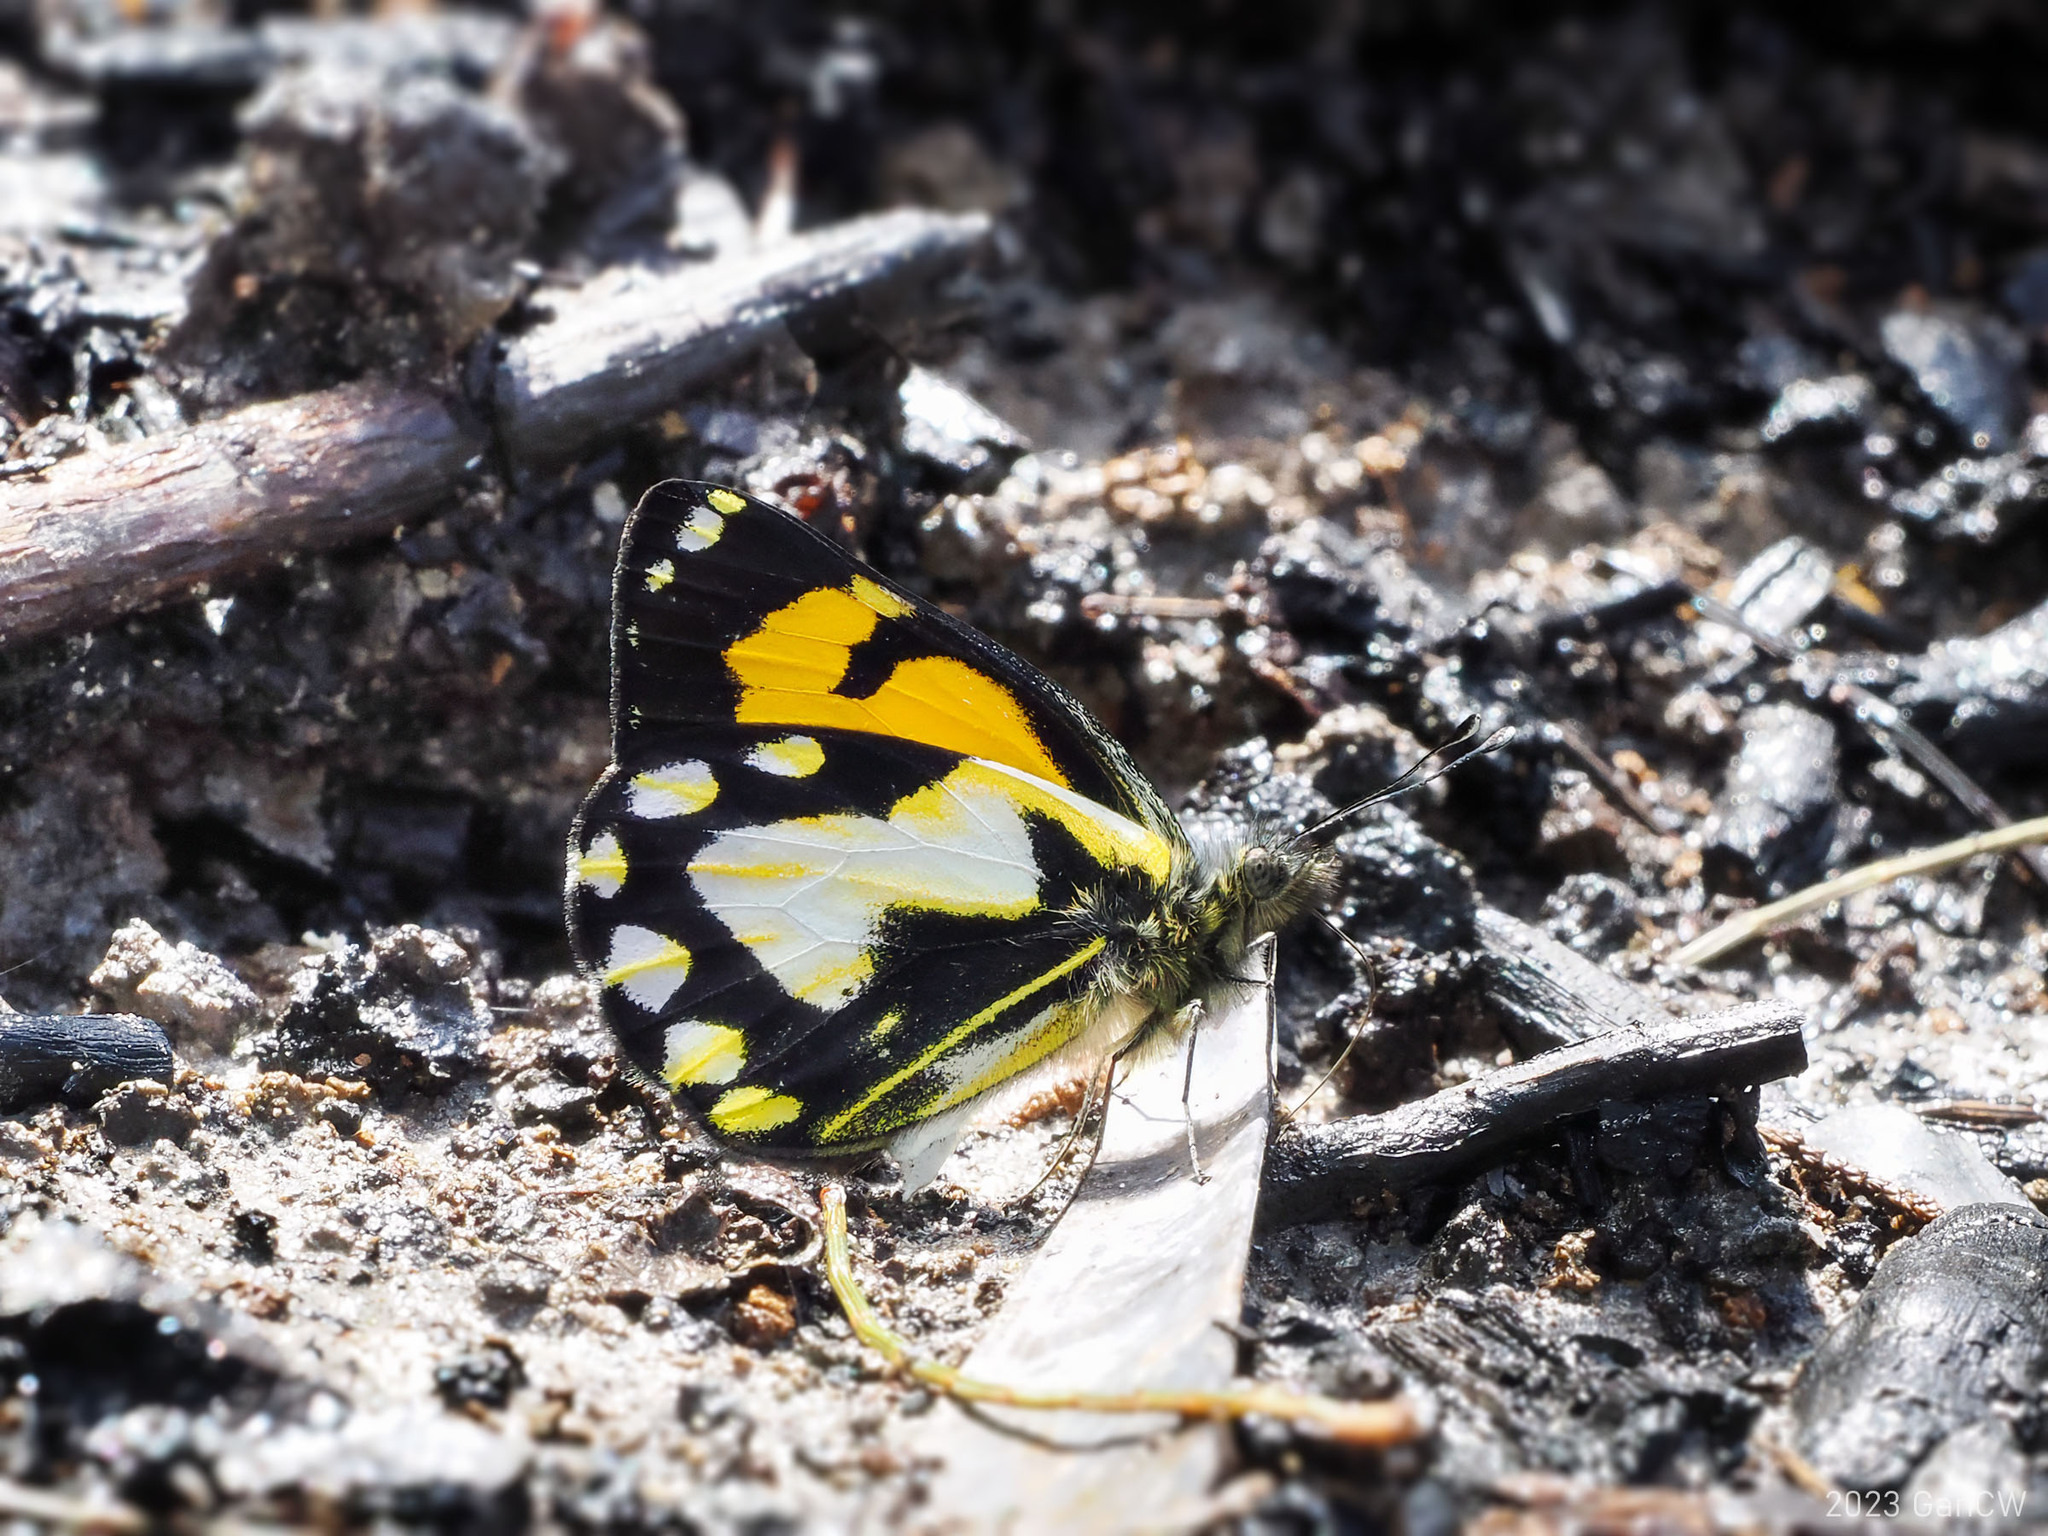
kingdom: Animalia
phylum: Arthropoda
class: Insecta
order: Lepidoptera
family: Pieridae
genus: Delias
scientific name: Delias
